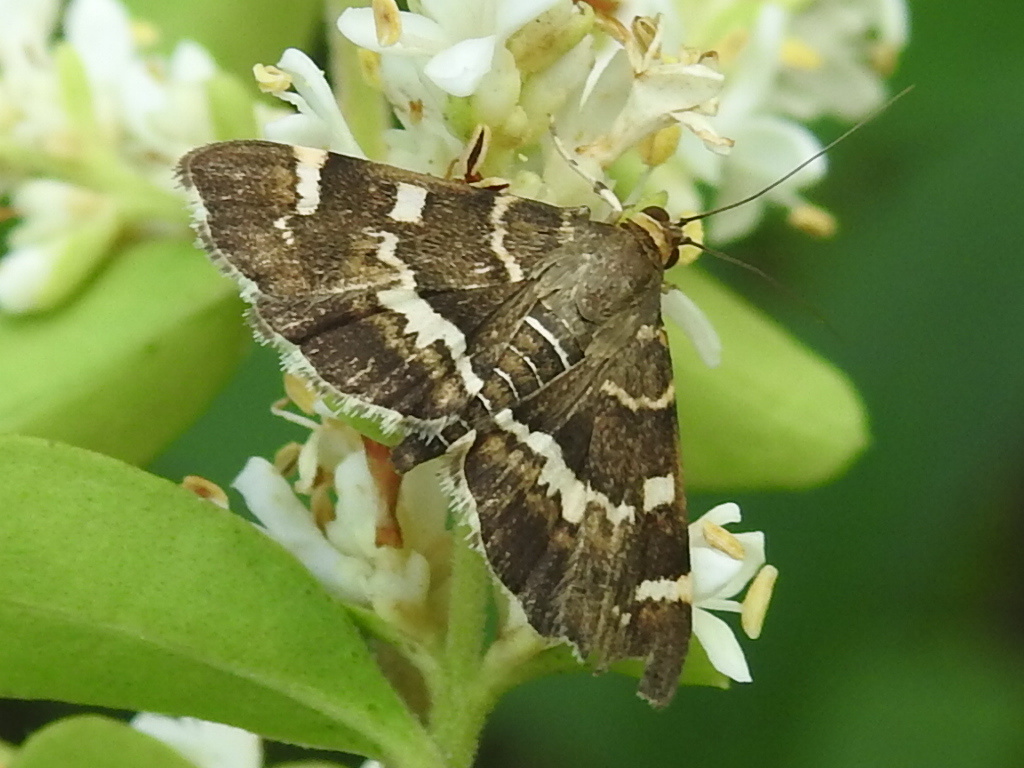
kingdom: Animalia
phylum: Arthropoda
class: Insecta
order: Lepidoptera
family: Crambidae
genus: Hymenia
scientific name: Hymenia perspectalis
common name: Spotted beet webworm
